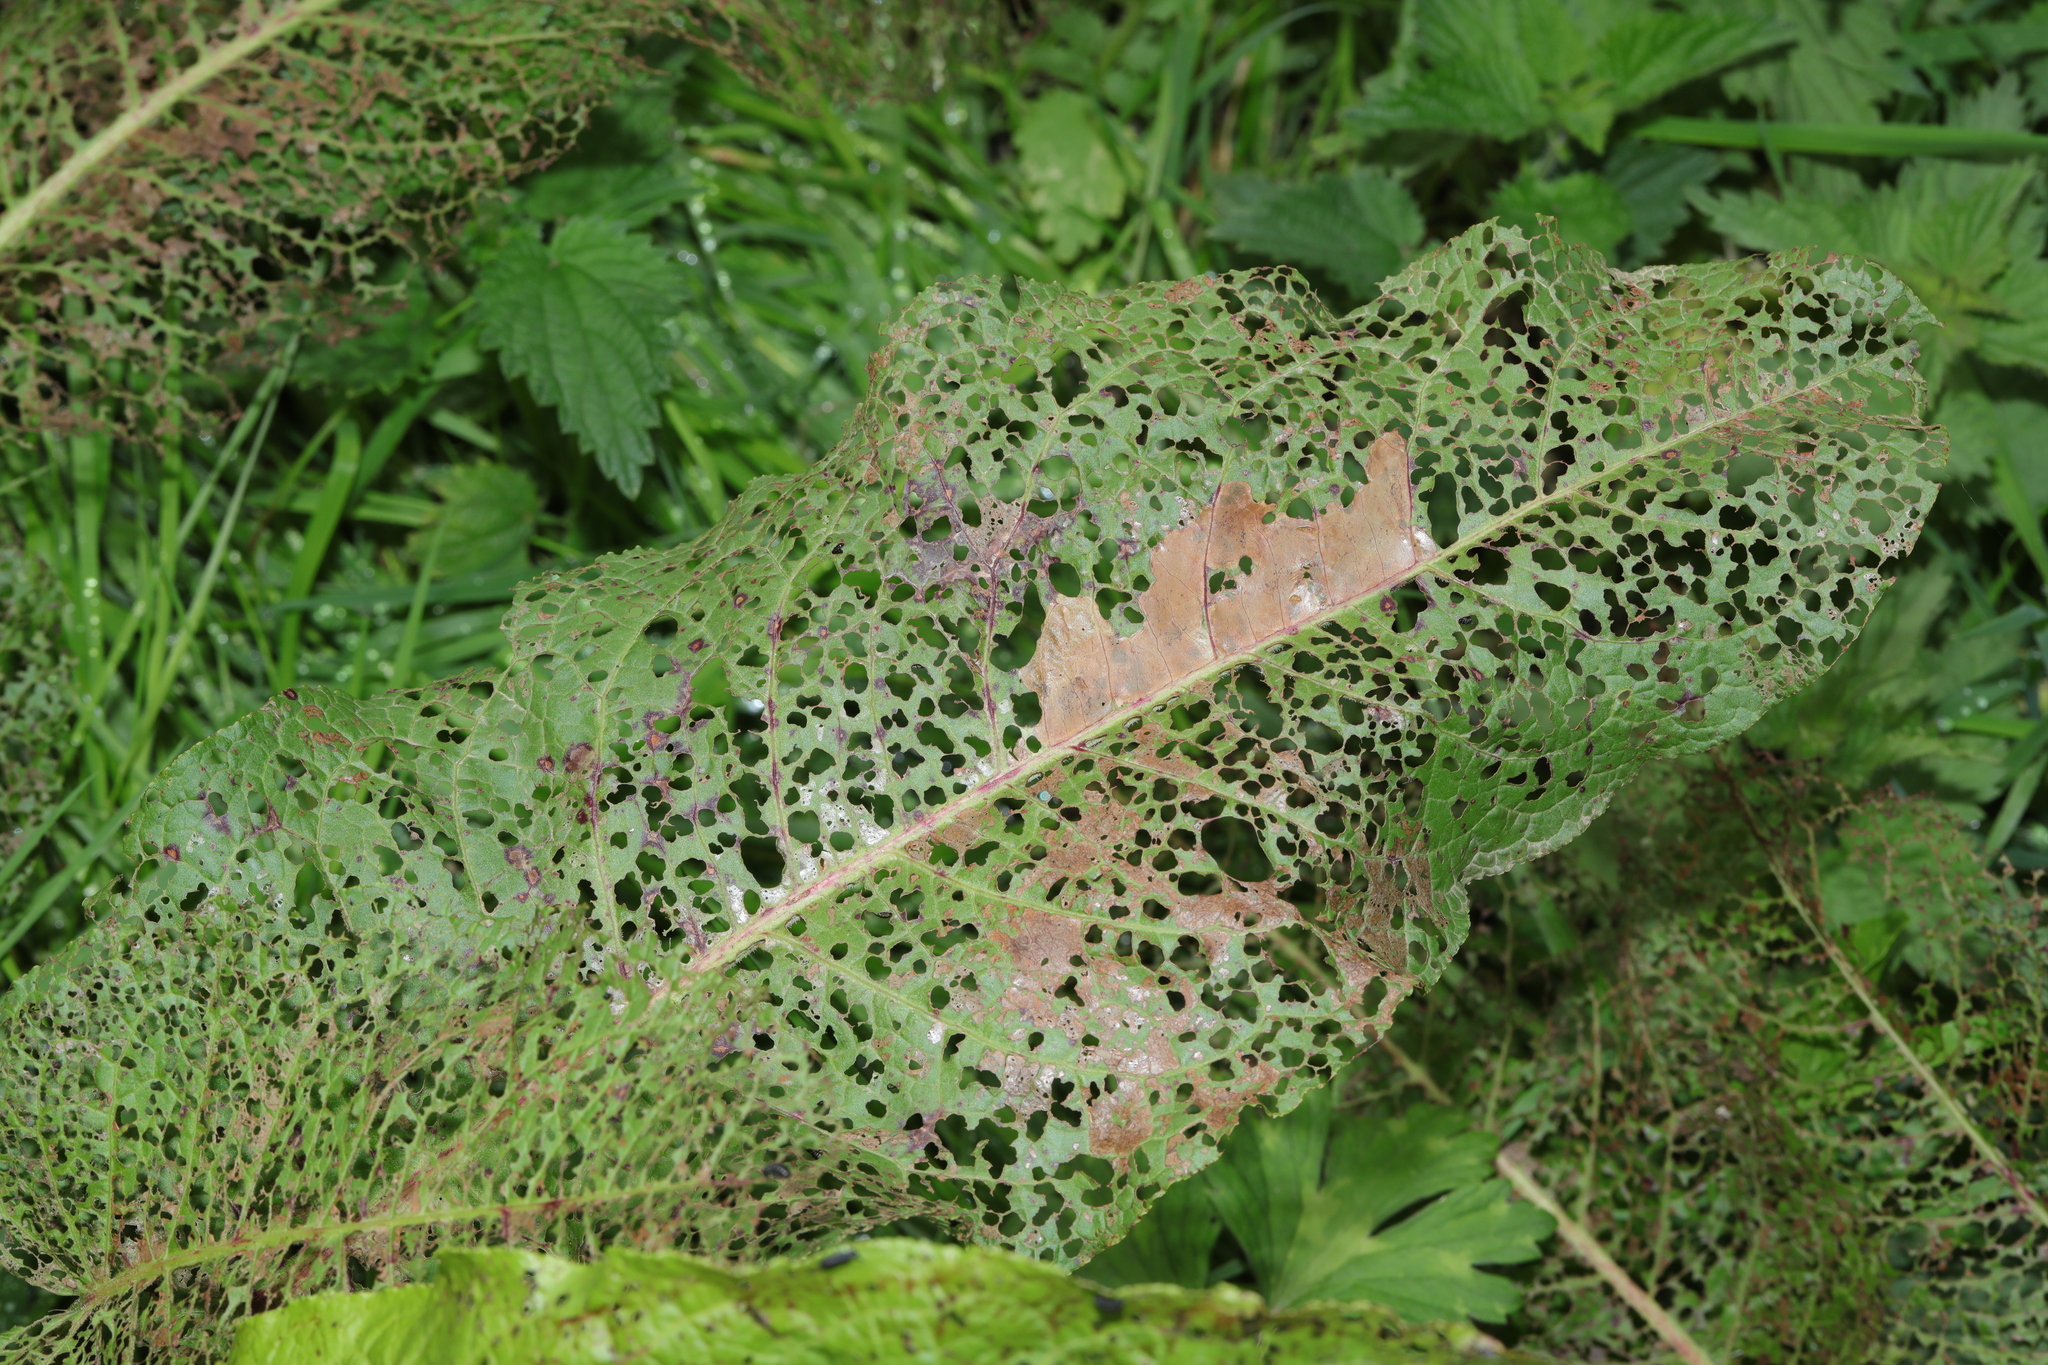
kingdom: Animalia
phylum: Arthropoda
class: Insecta
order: Coleoptera
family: Chrysomelidae
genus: Gastrophysa
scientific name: Gastrophysa viridula
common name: Green dock beetle
